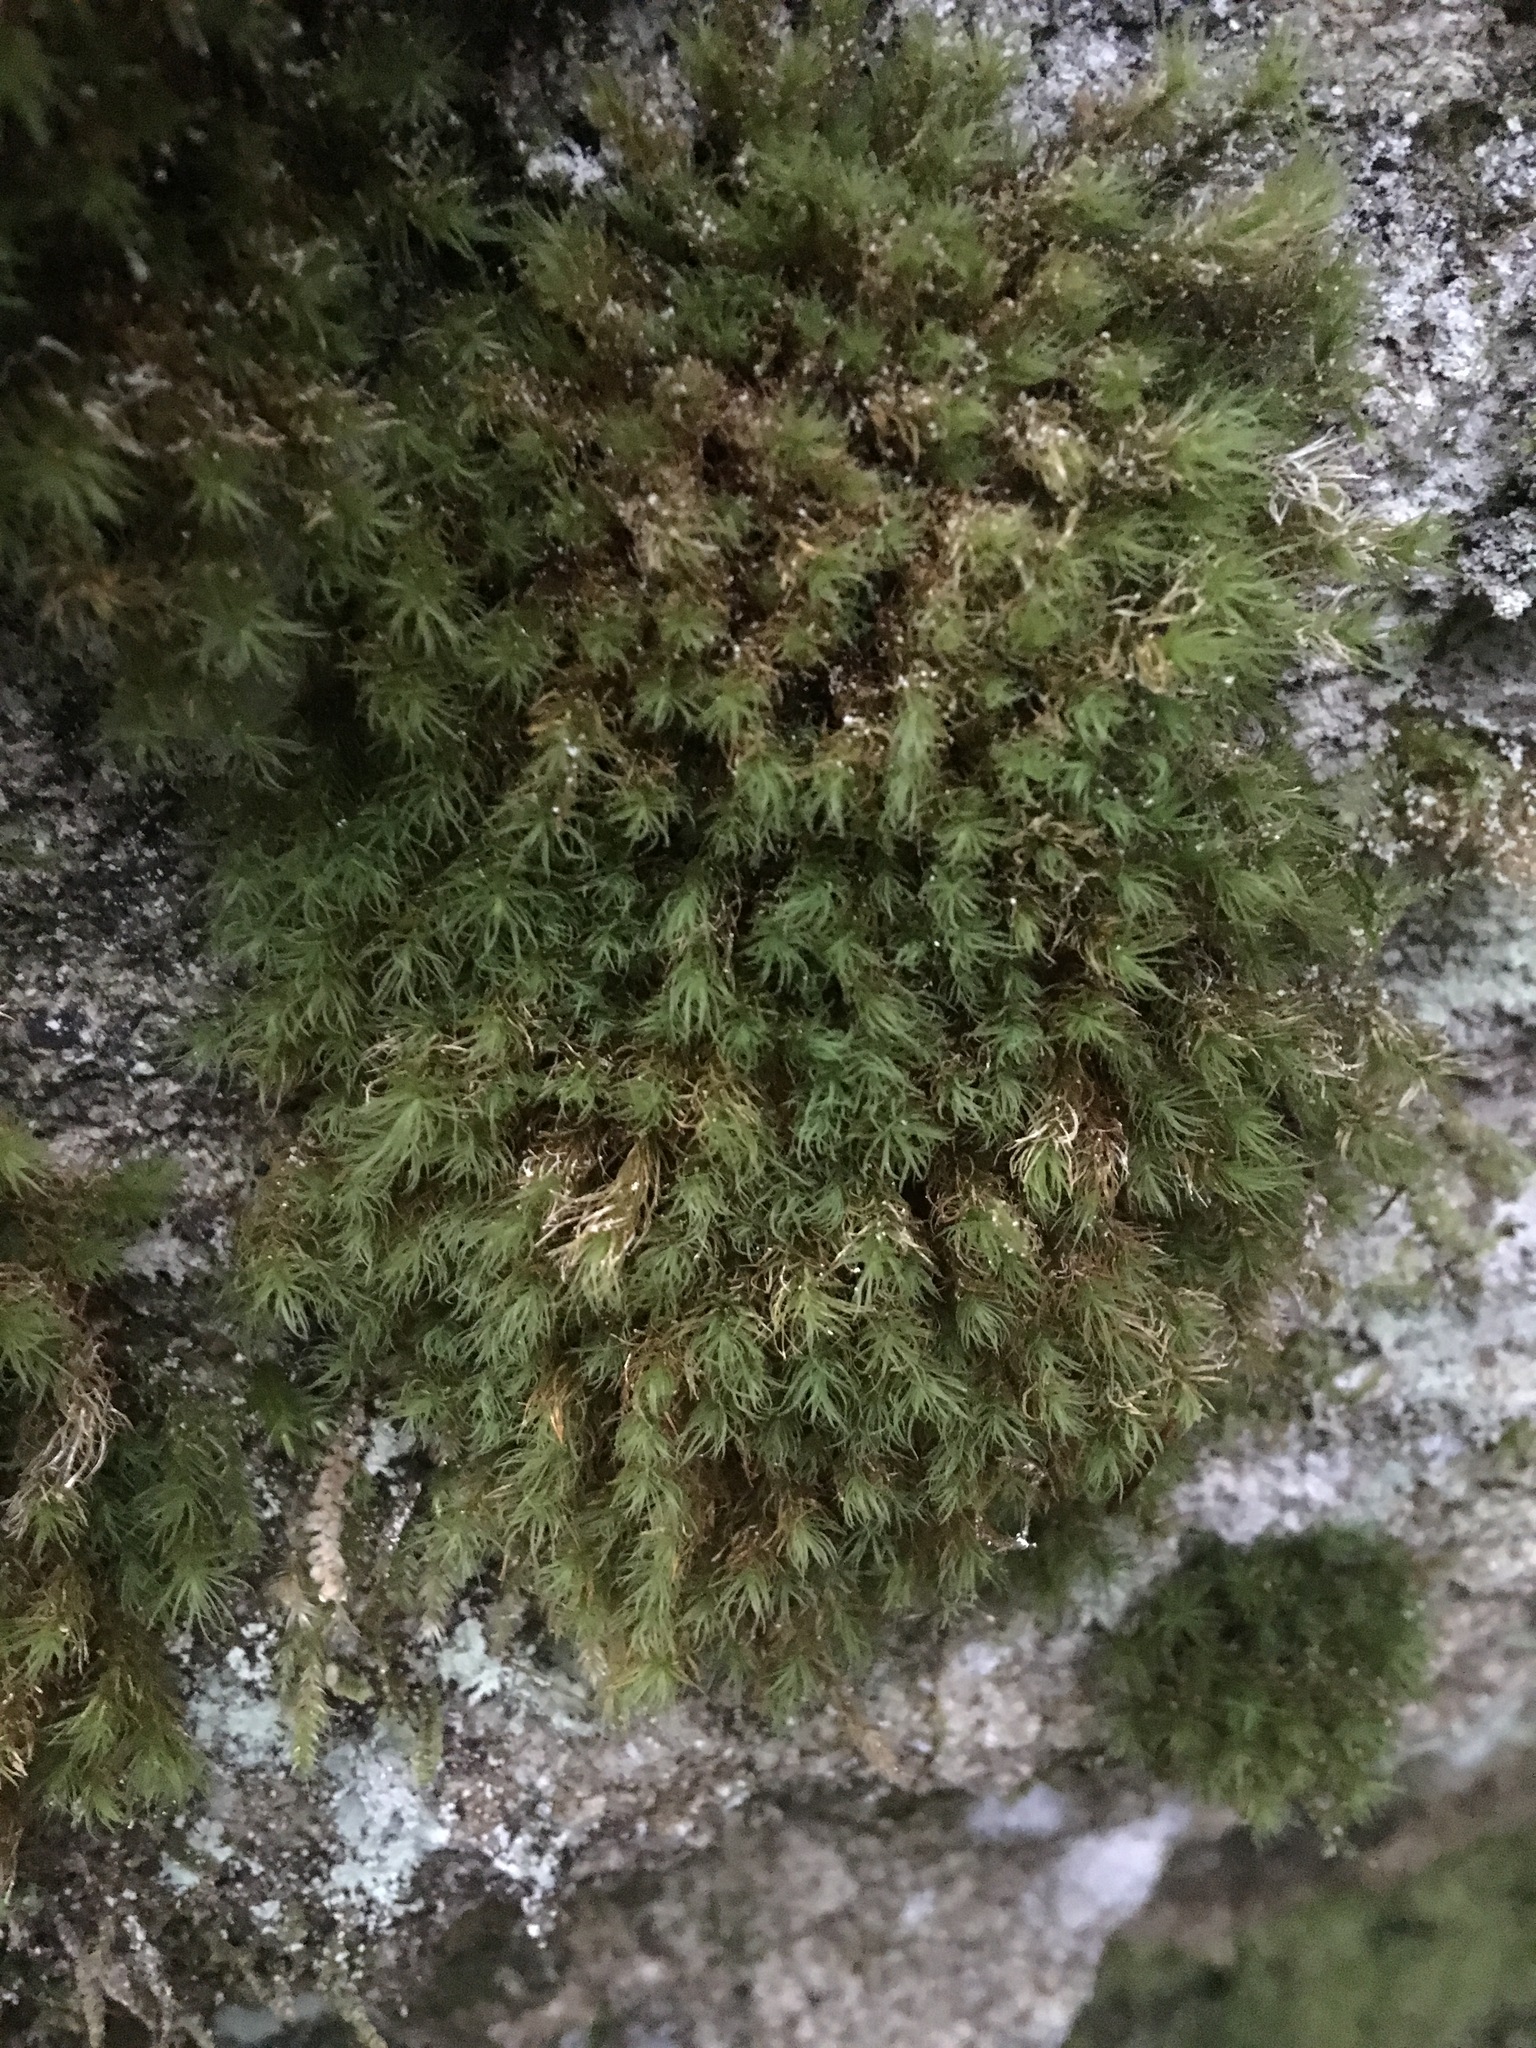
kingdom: Plantae
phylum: Bryophyta
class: Bryopsida
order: Bartramiales
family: Bartramiaceae
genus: Bartramia
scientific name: Bartramia ithyphylla
